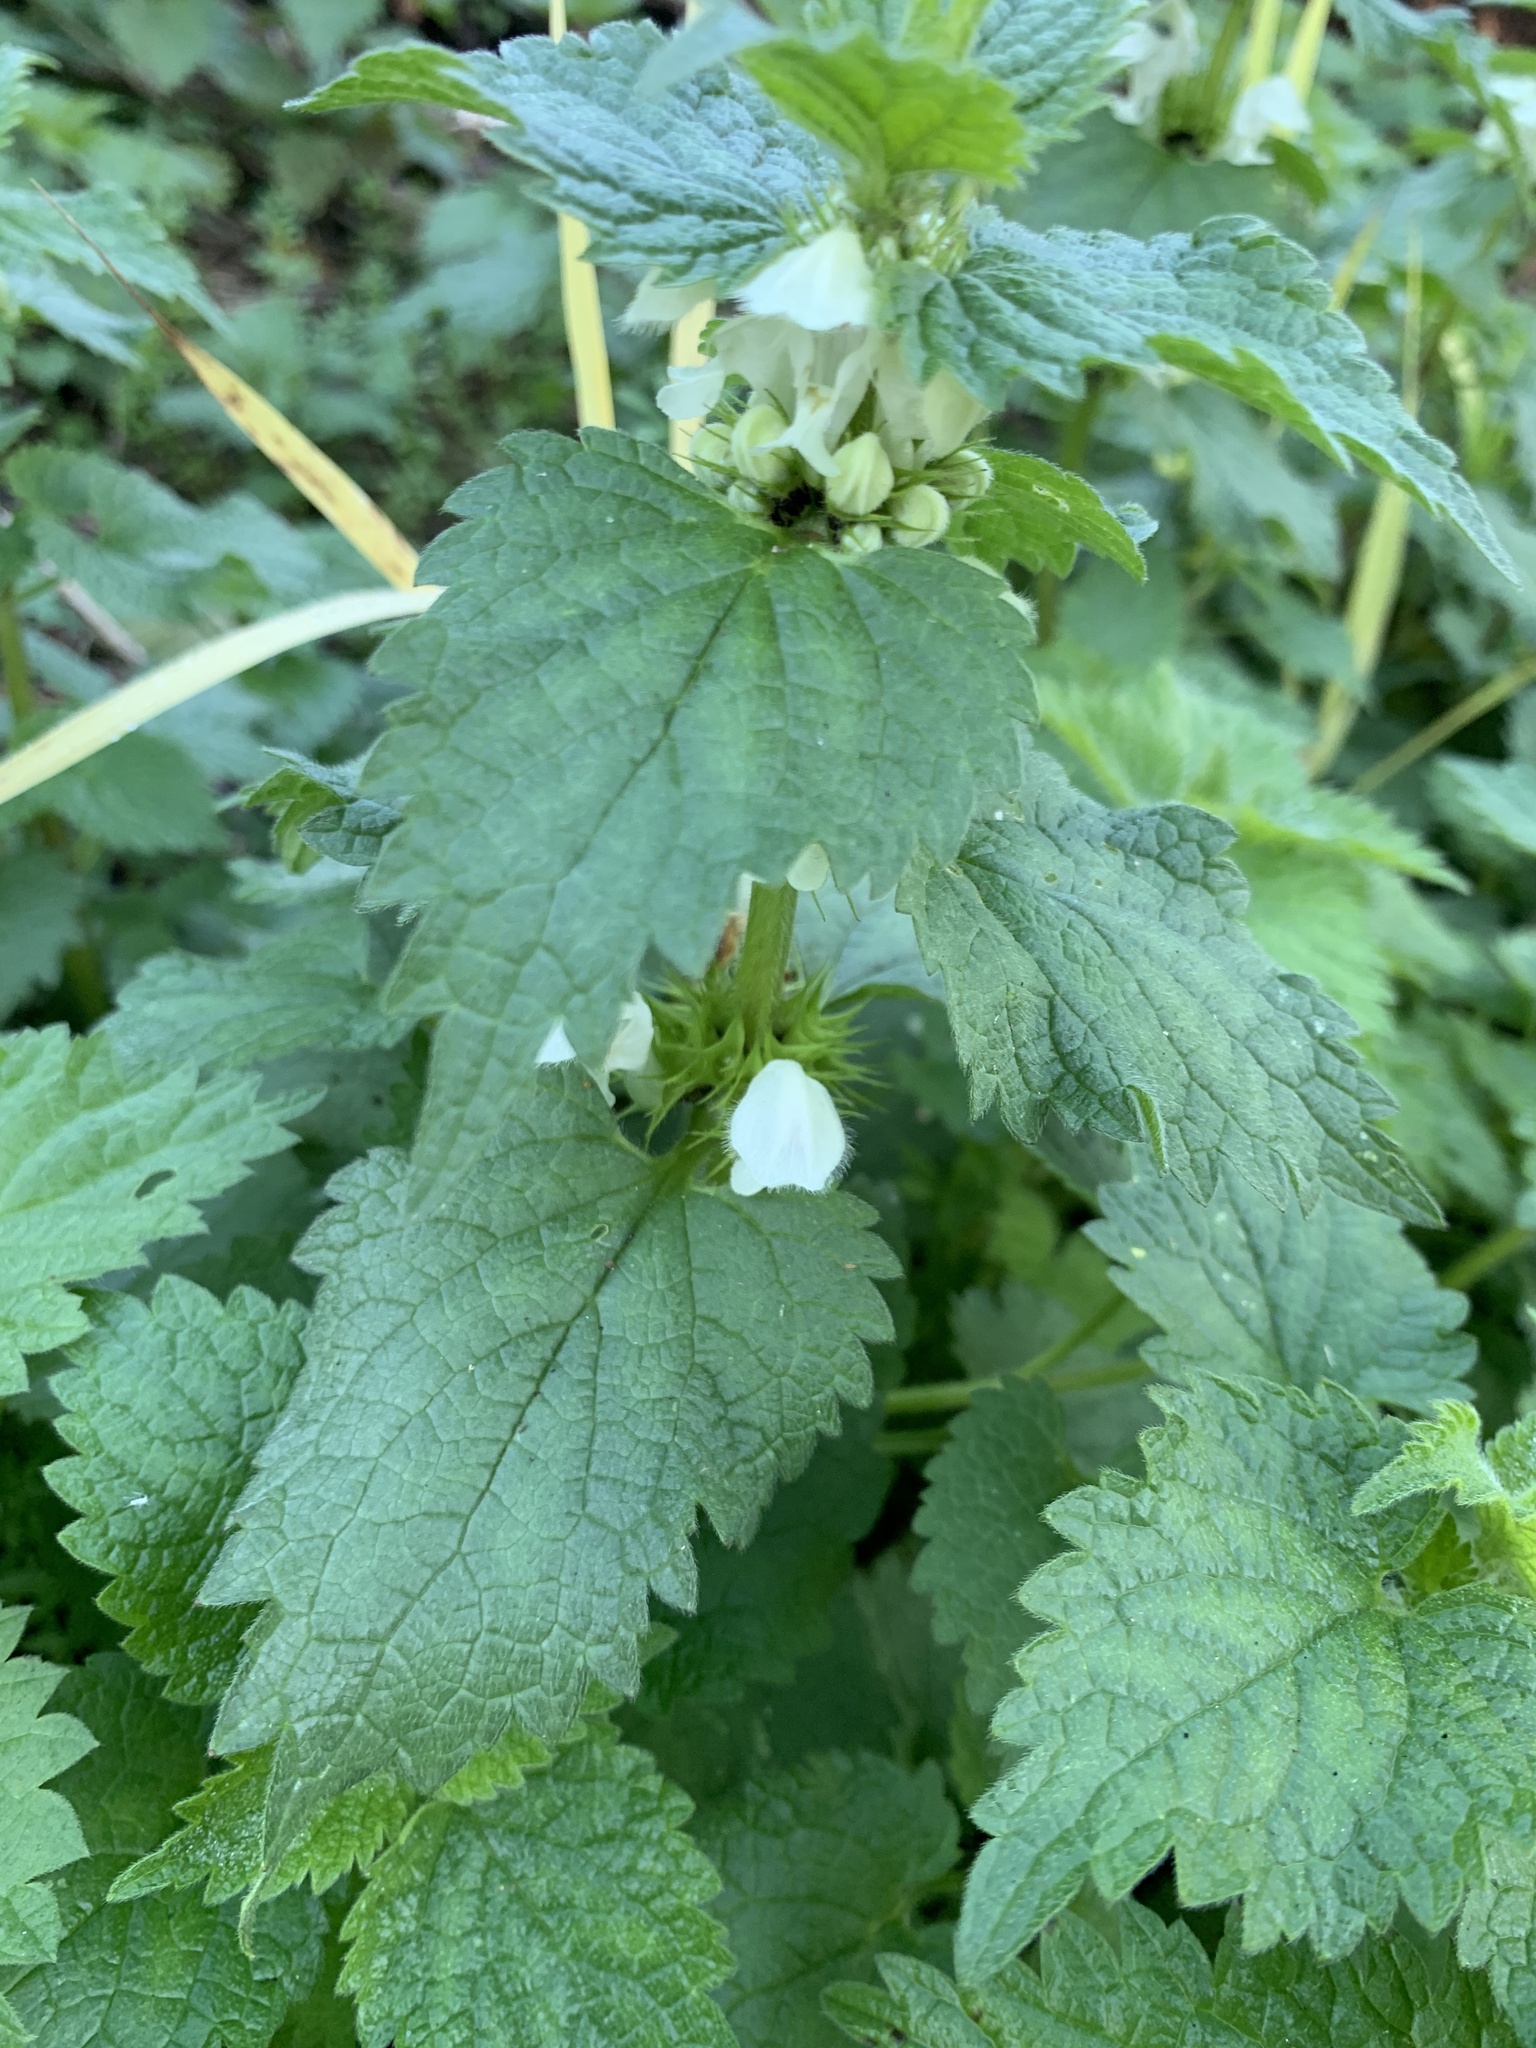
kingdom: Plantae
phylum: Tracheophyta
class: Magnoliopsida
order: Lamiales
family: Lamiaceae
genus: Lamium
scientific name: Lamium album
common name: White dead-nettle
